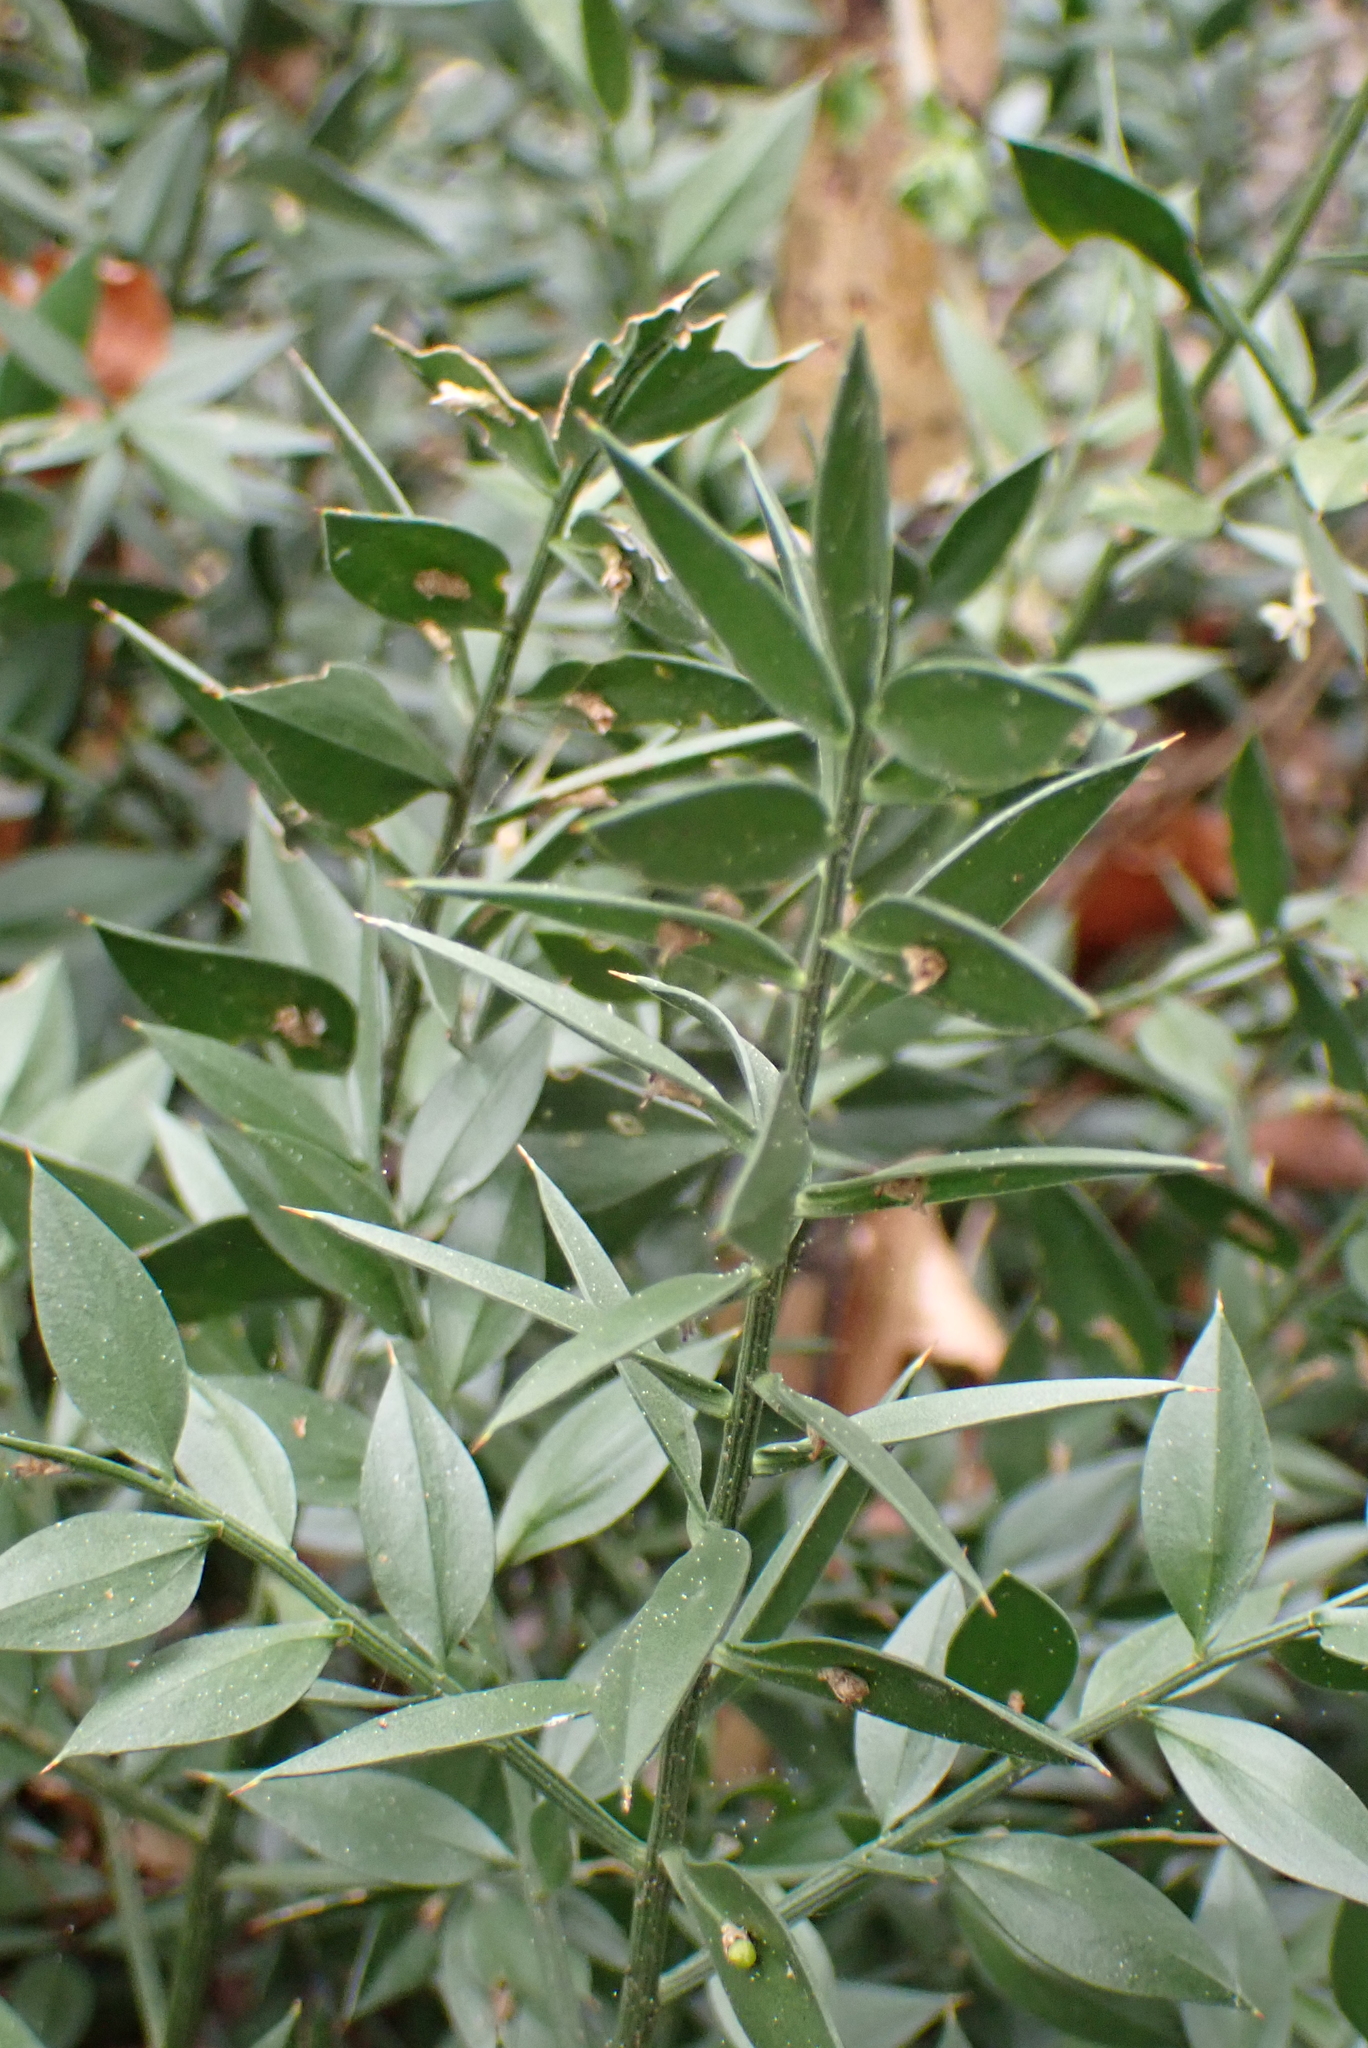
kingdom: Plantae
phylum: Tracheophyta
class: Liliopsida
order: Asparagales
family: Asparagaceae
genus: Ruscus
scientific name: Ruscus aculeatus
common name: Butcher's-broom
